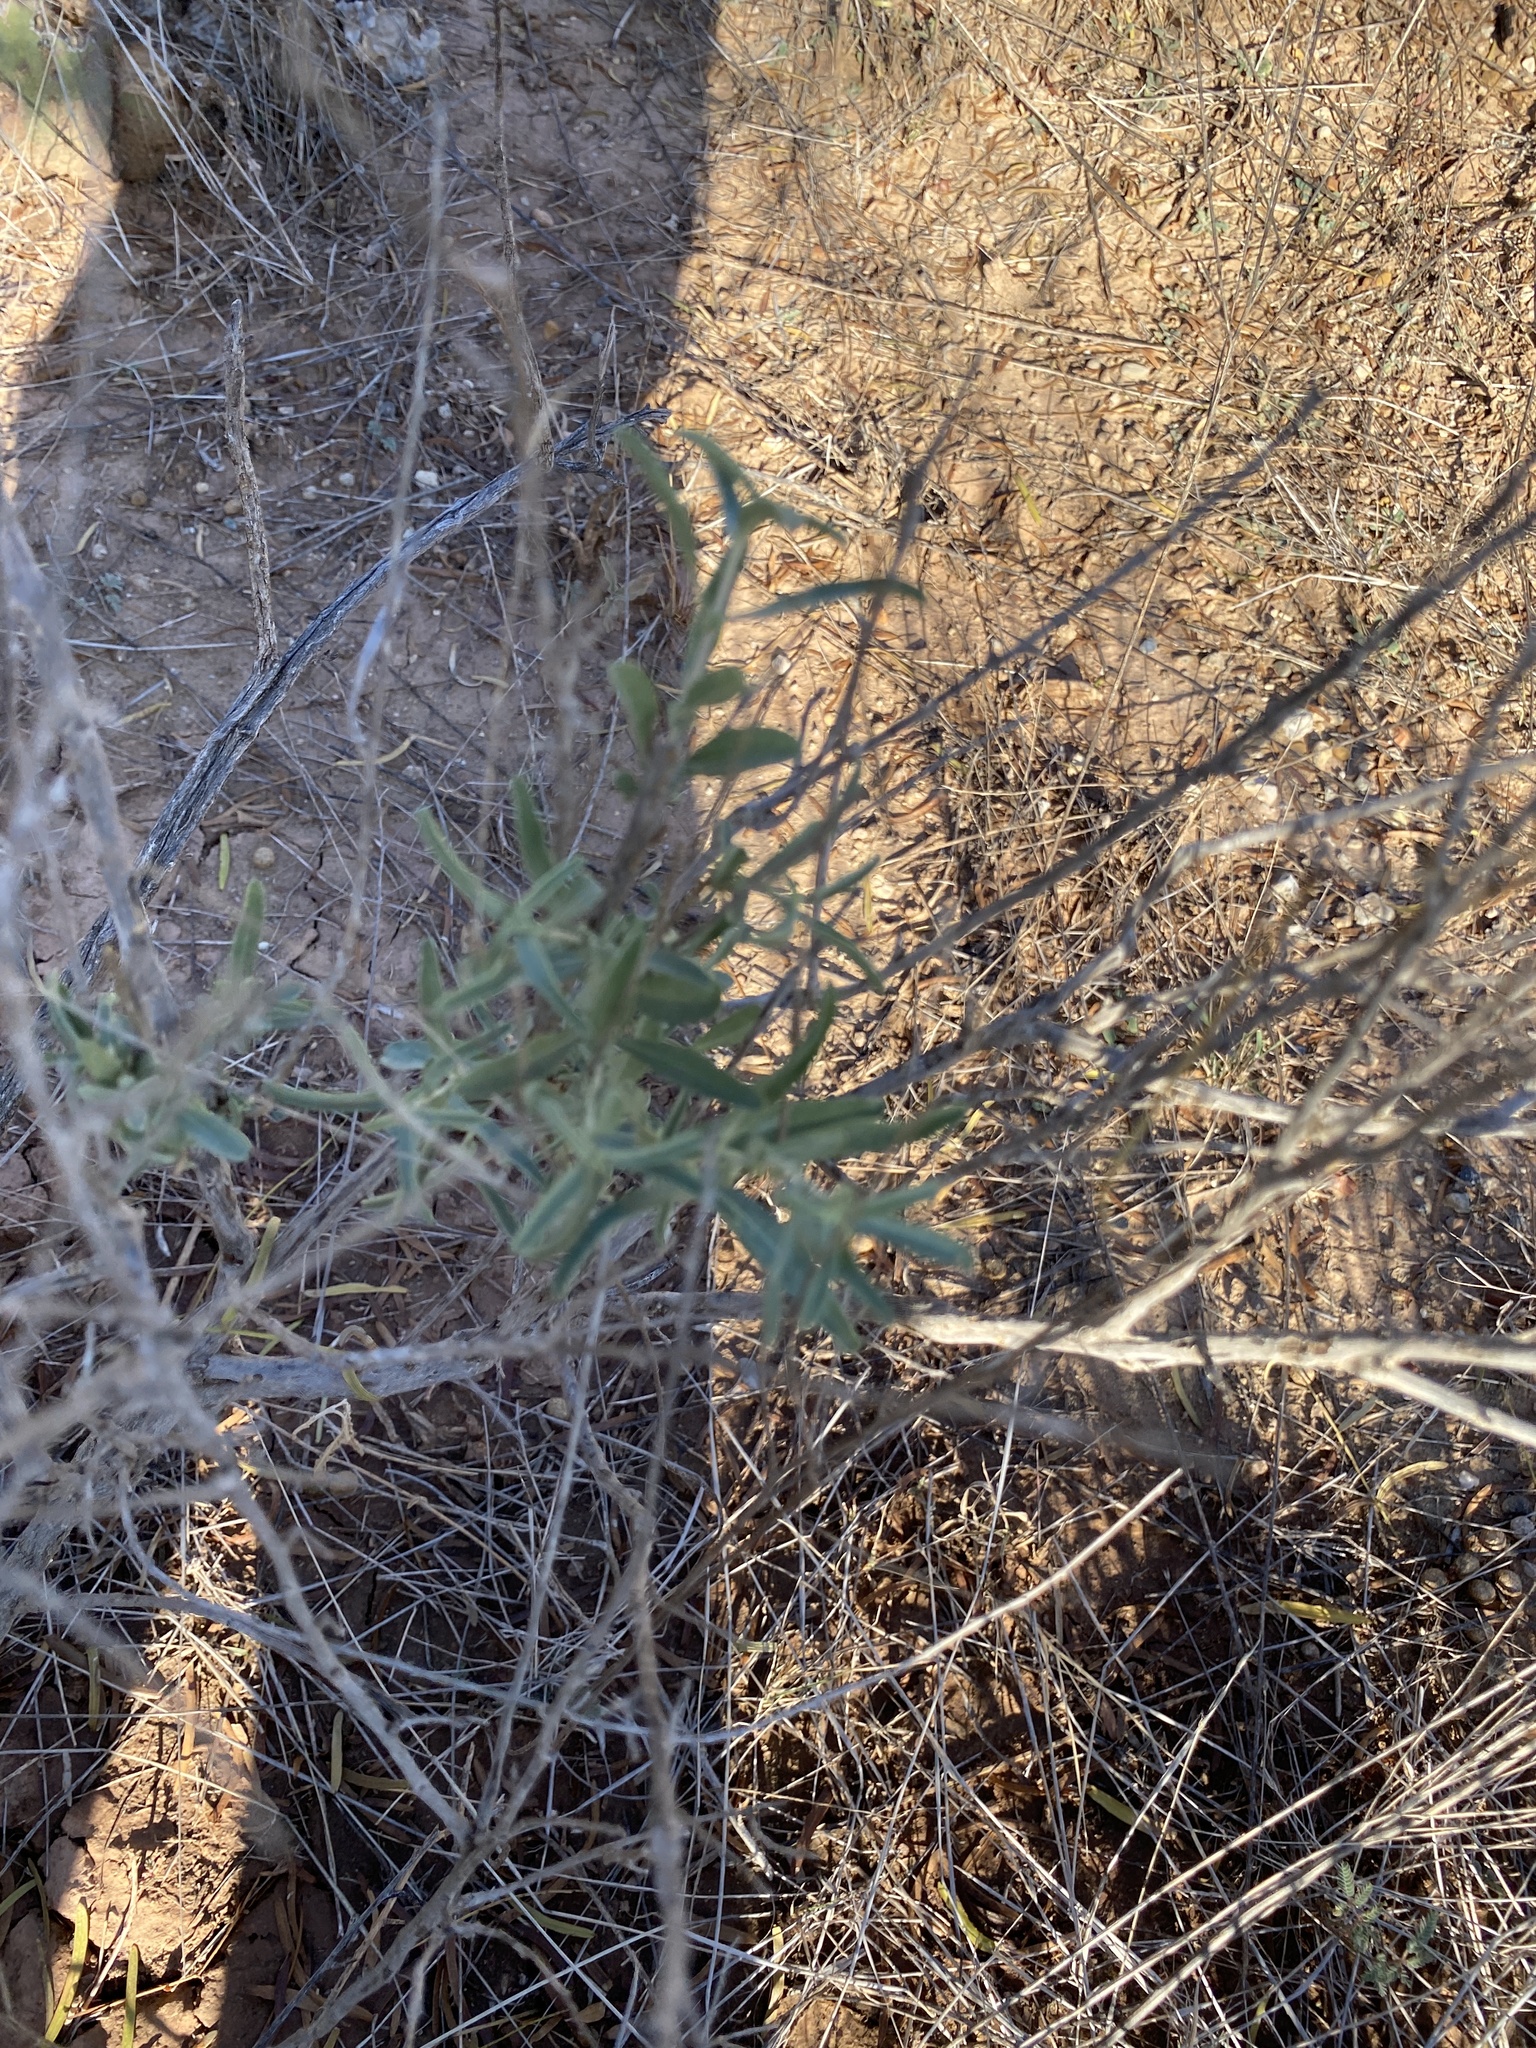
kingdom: Plantae
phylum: Tracheophyta
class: Magnoliopsida
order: Caryophyllales
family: Amaranthaceae
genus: Atriplex
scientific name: Atriplex canescens
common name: Four-wing saltbush
